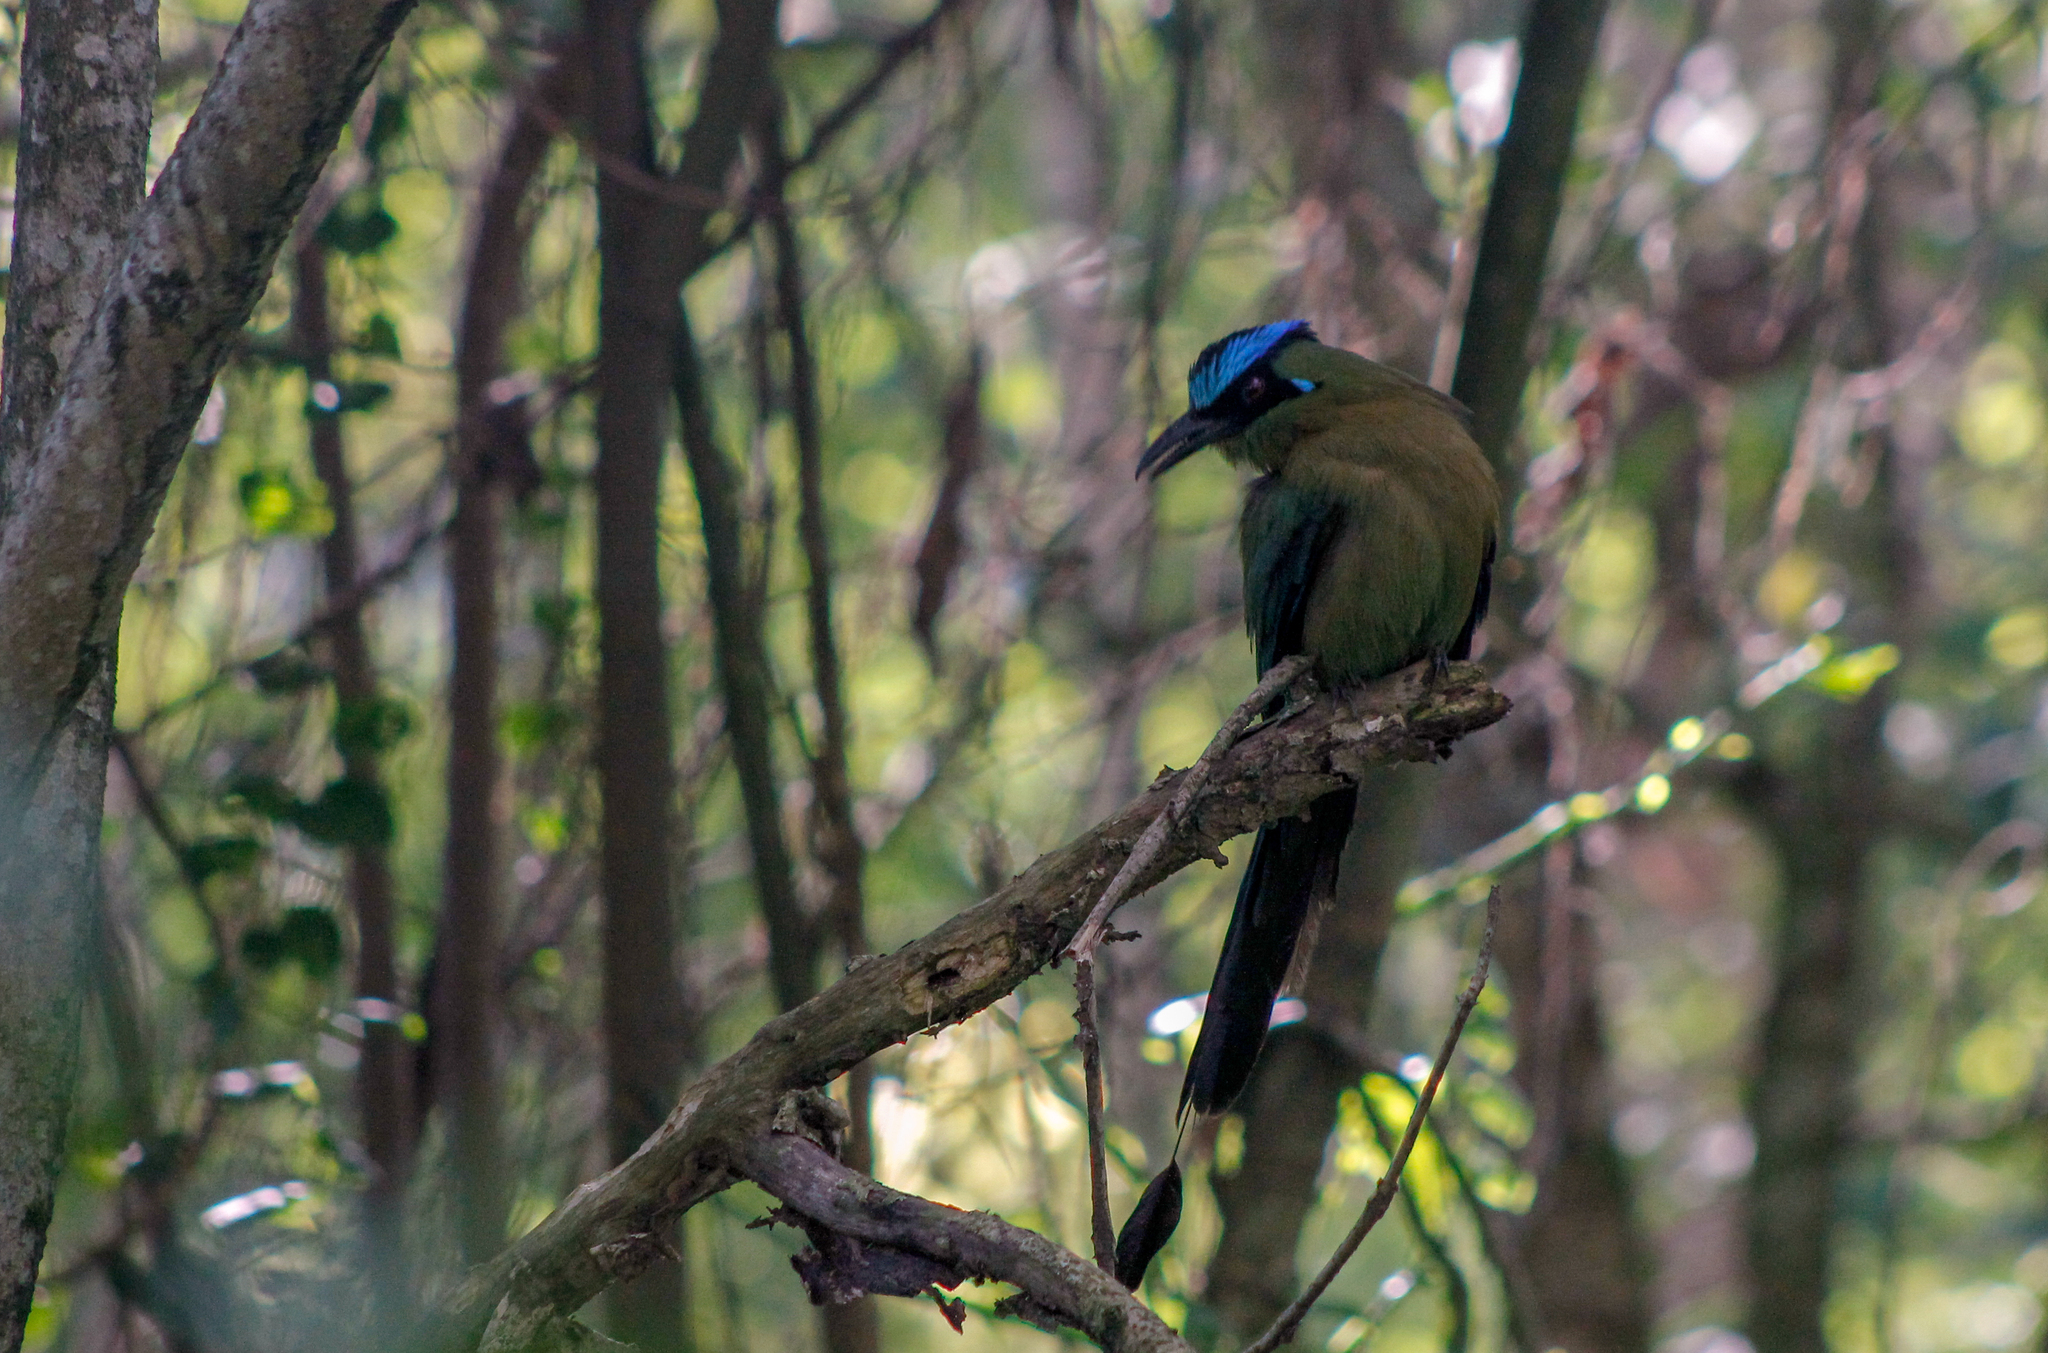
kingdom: Animalia
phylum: Chordata
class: Aves
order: Coraciiformes
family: Momotidae
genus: Momotus
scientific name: Momotus aequatorialis
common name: Andean motmot
